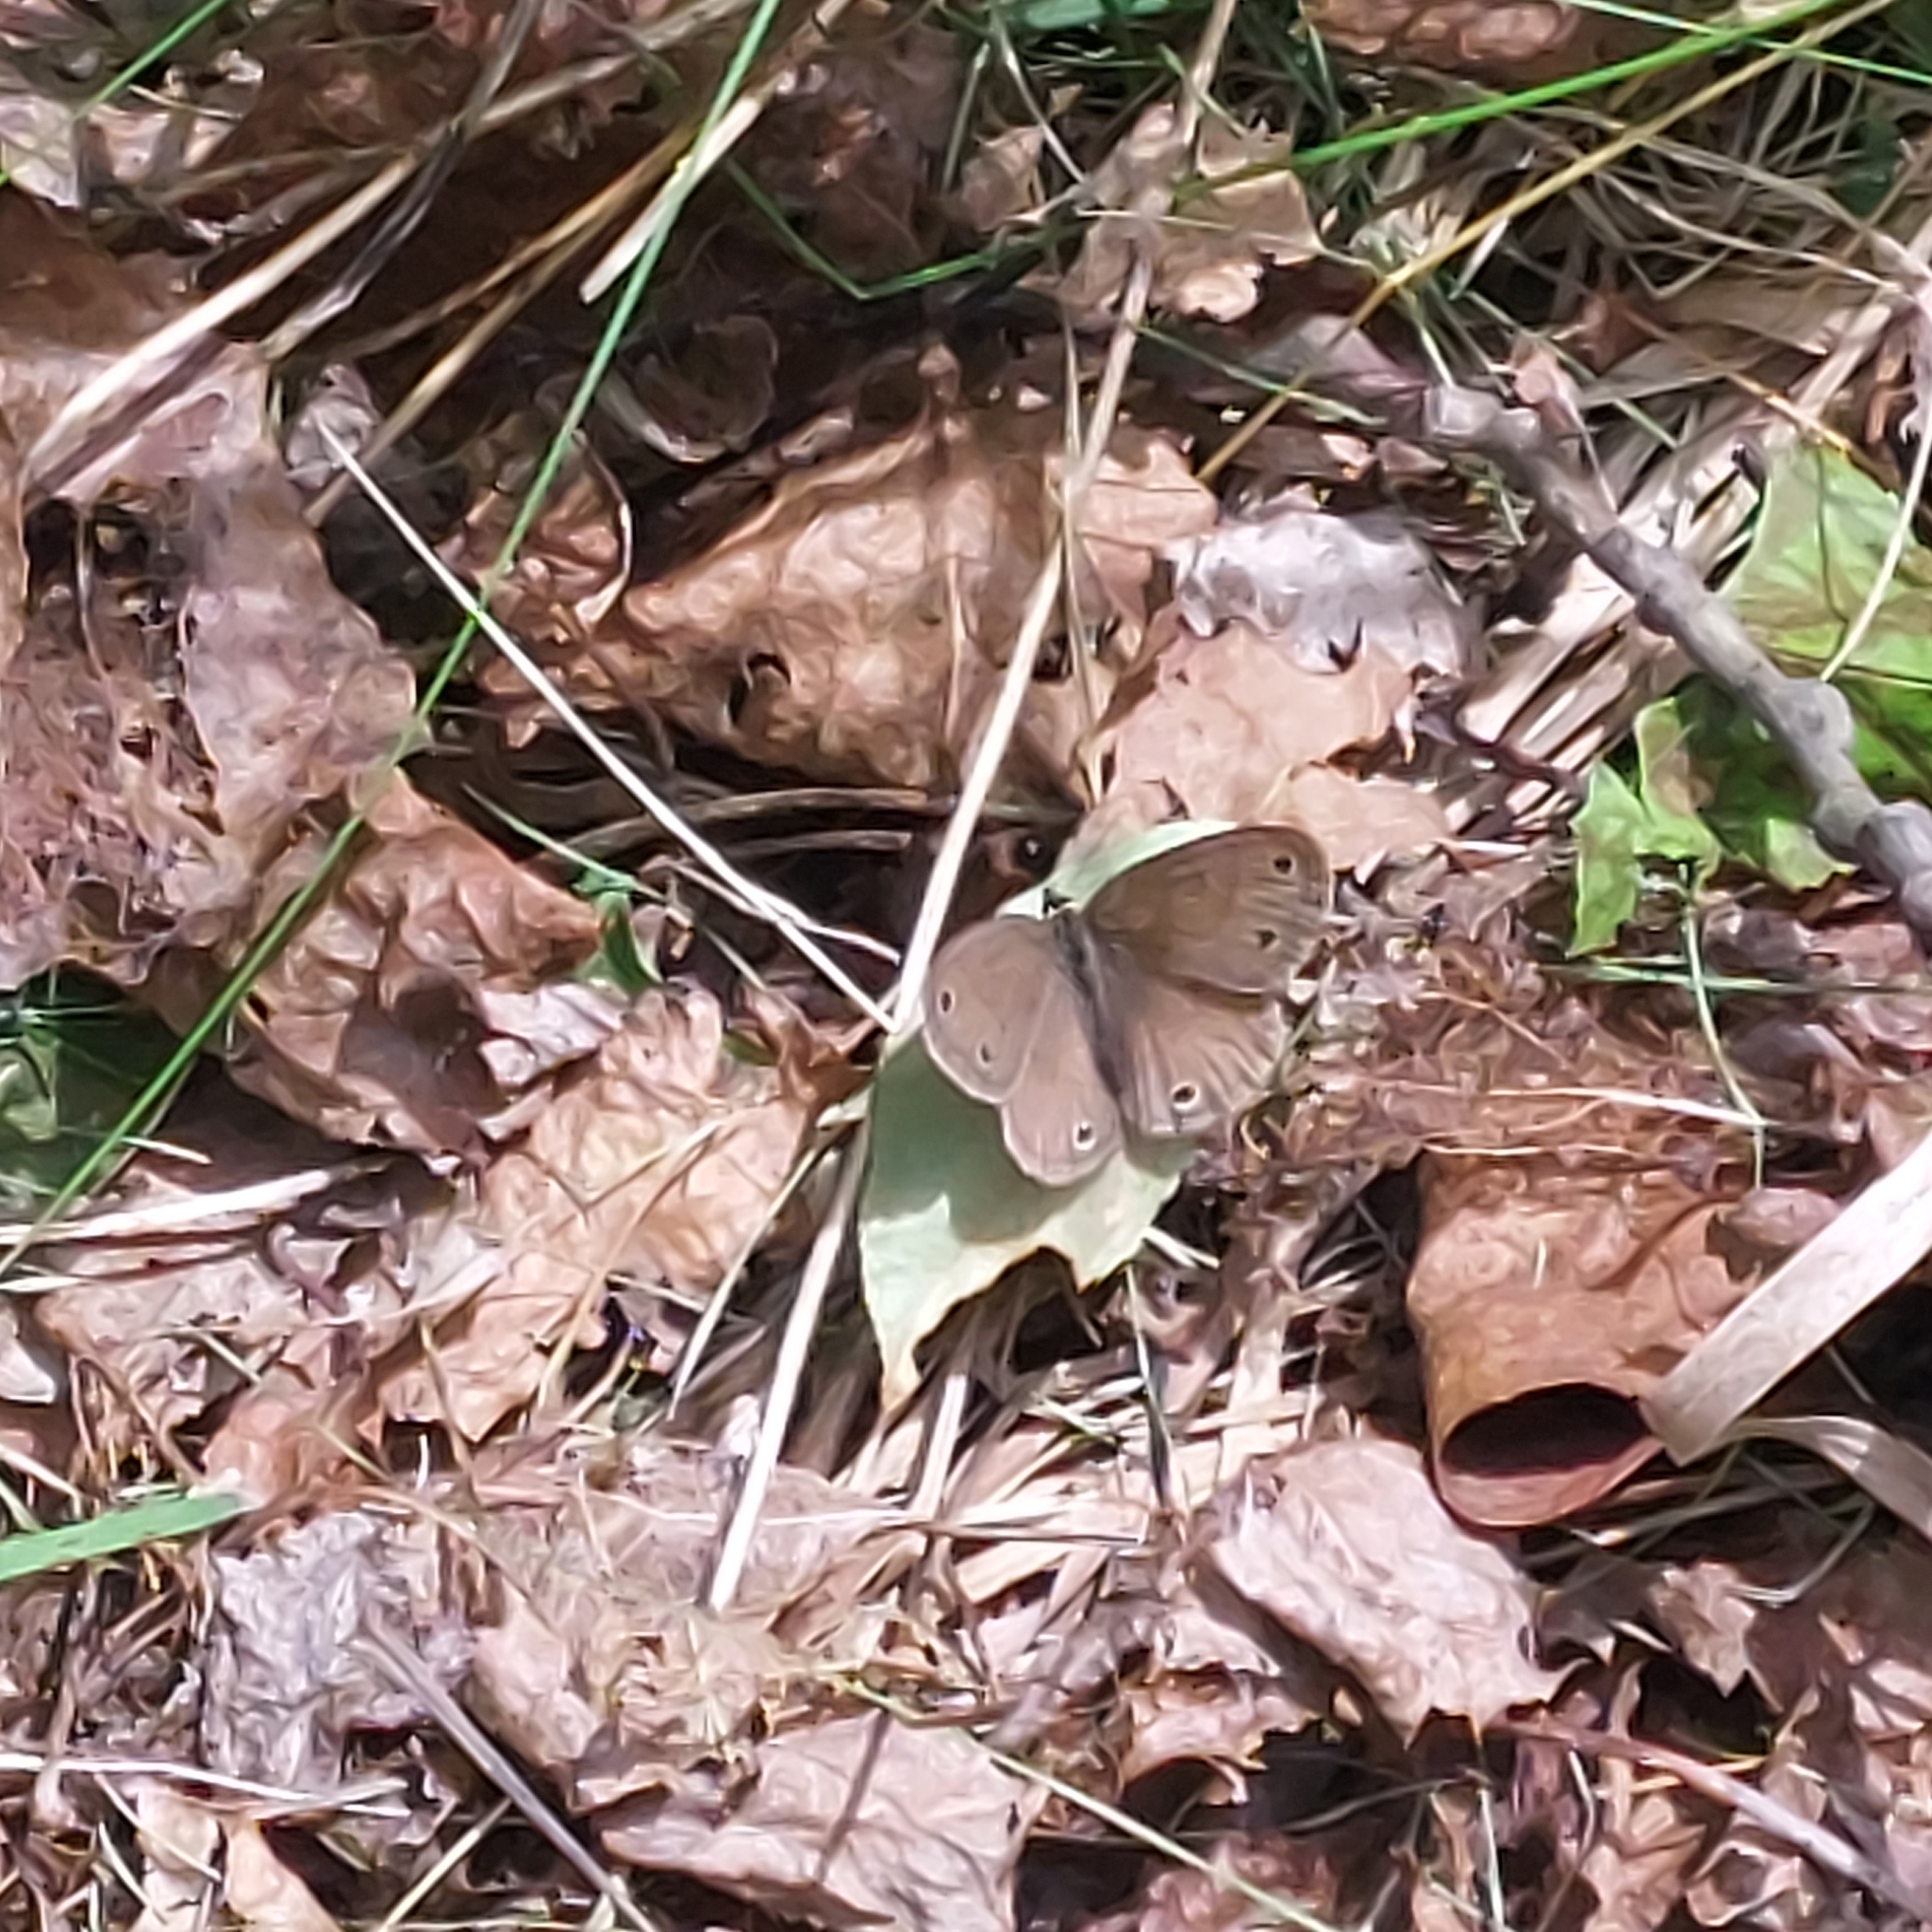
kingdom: Animalia
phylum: Arthropoda
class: Insecta
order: Lepidoptera
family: Nymphalidae
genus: Euptychia
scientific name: Euptychia cymela
